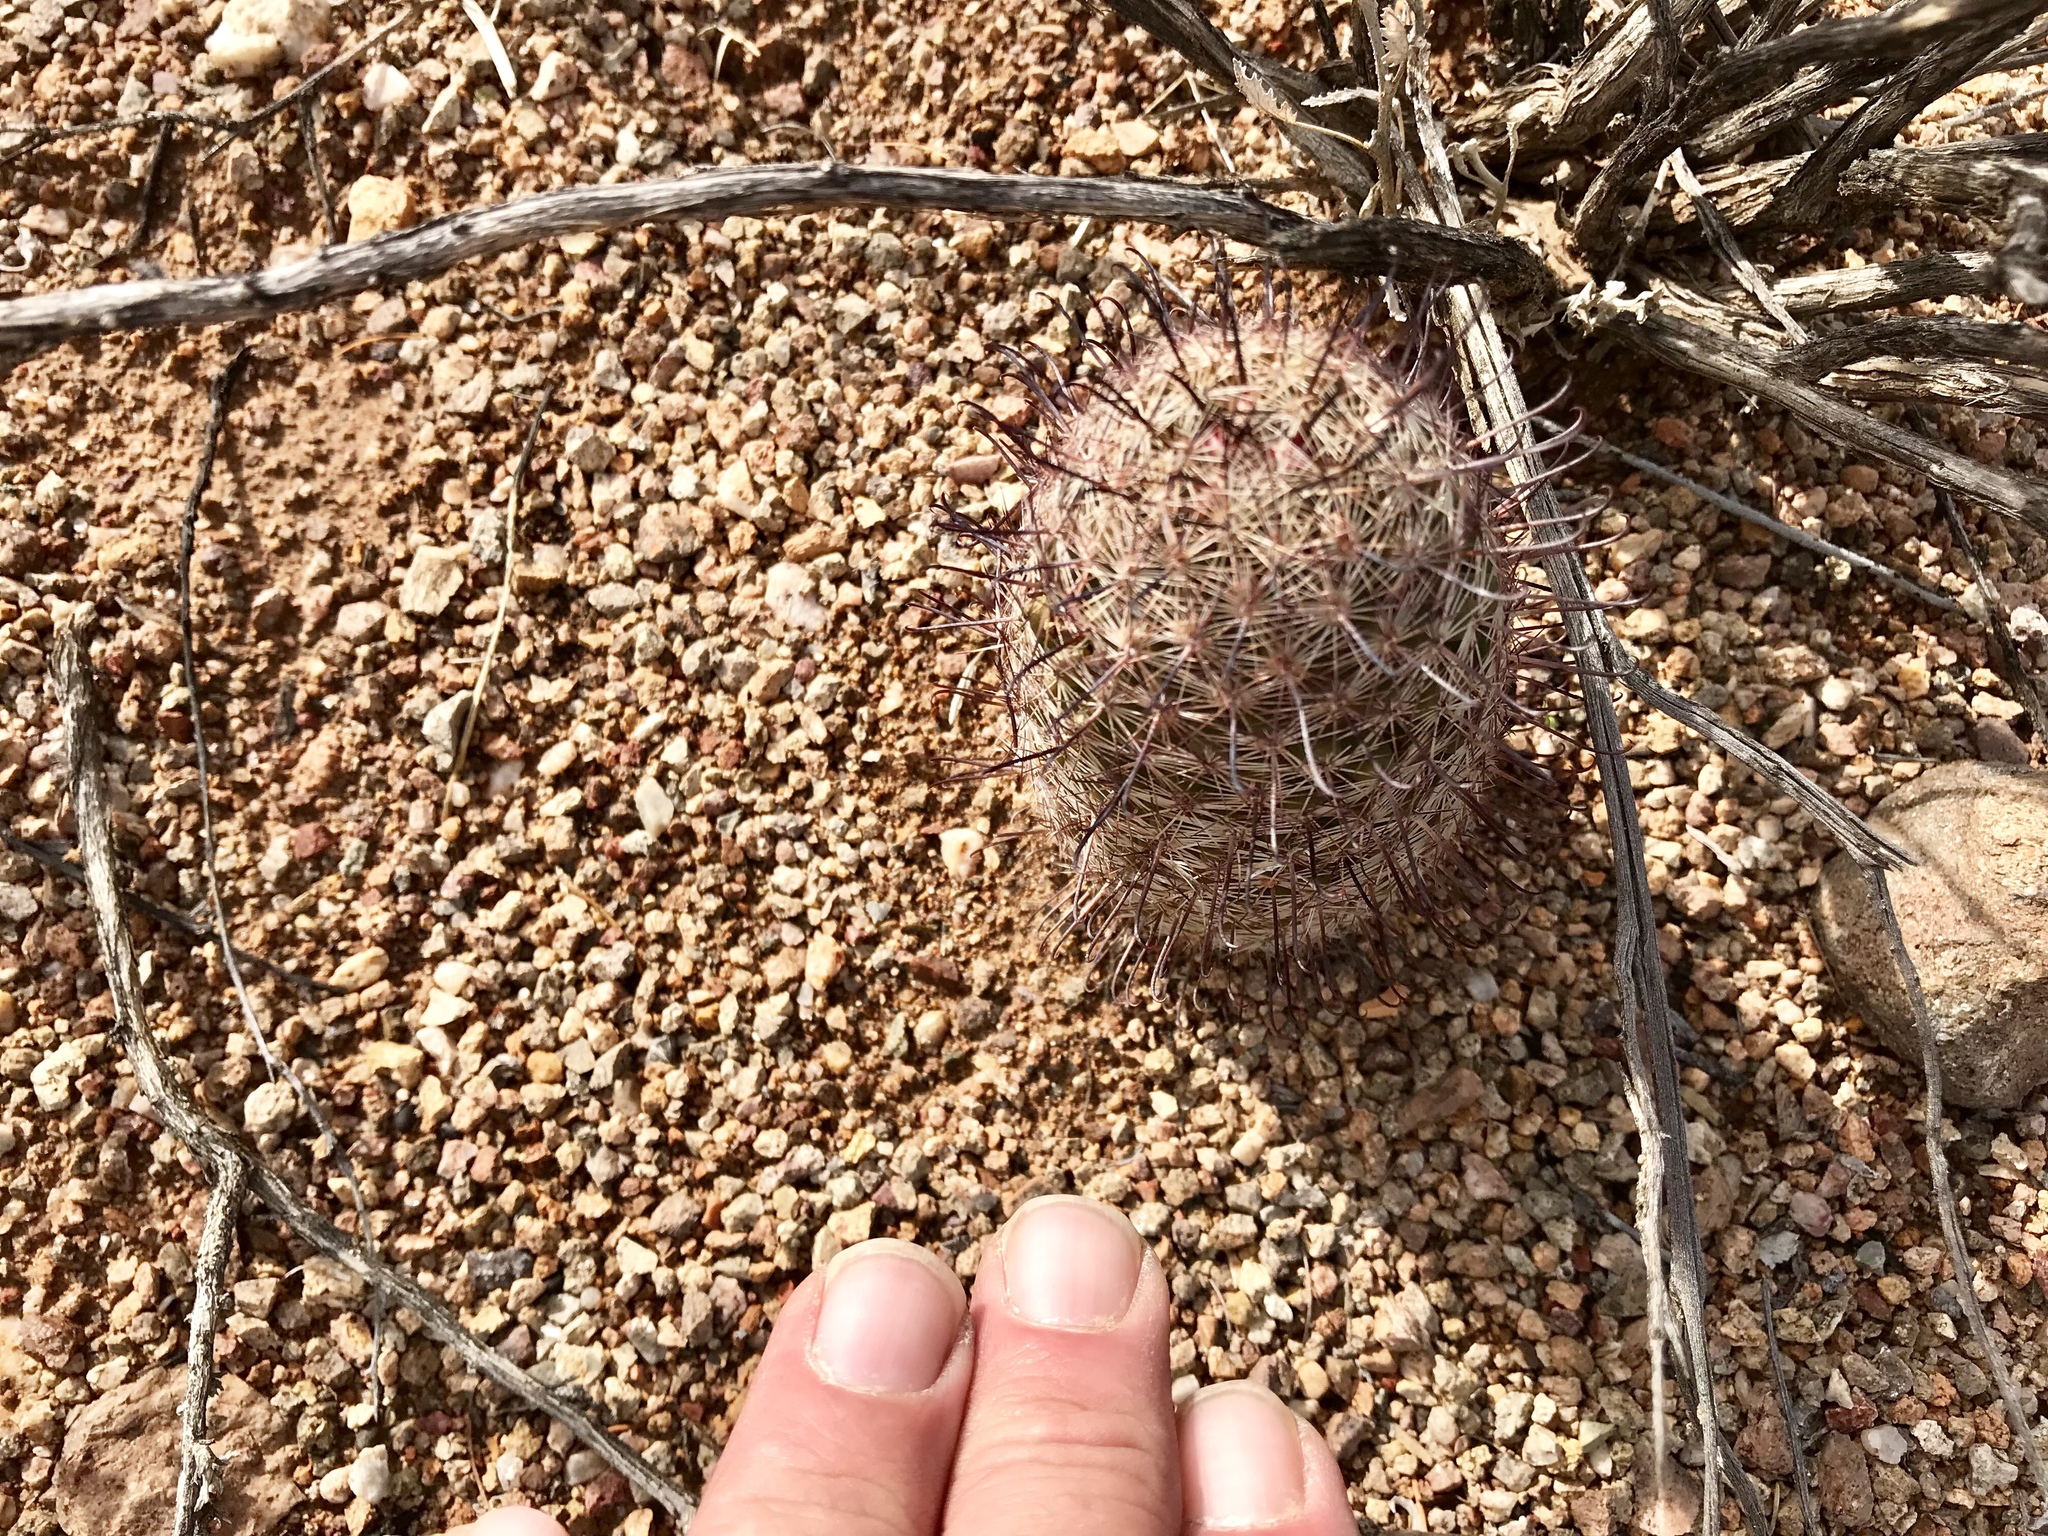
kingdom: Plantae
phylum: Tracheophyta
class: Magnoliopsida
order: Caryophyllales
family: Cactaceae
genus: Cochemiea
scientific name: Cochemiea grahamii
